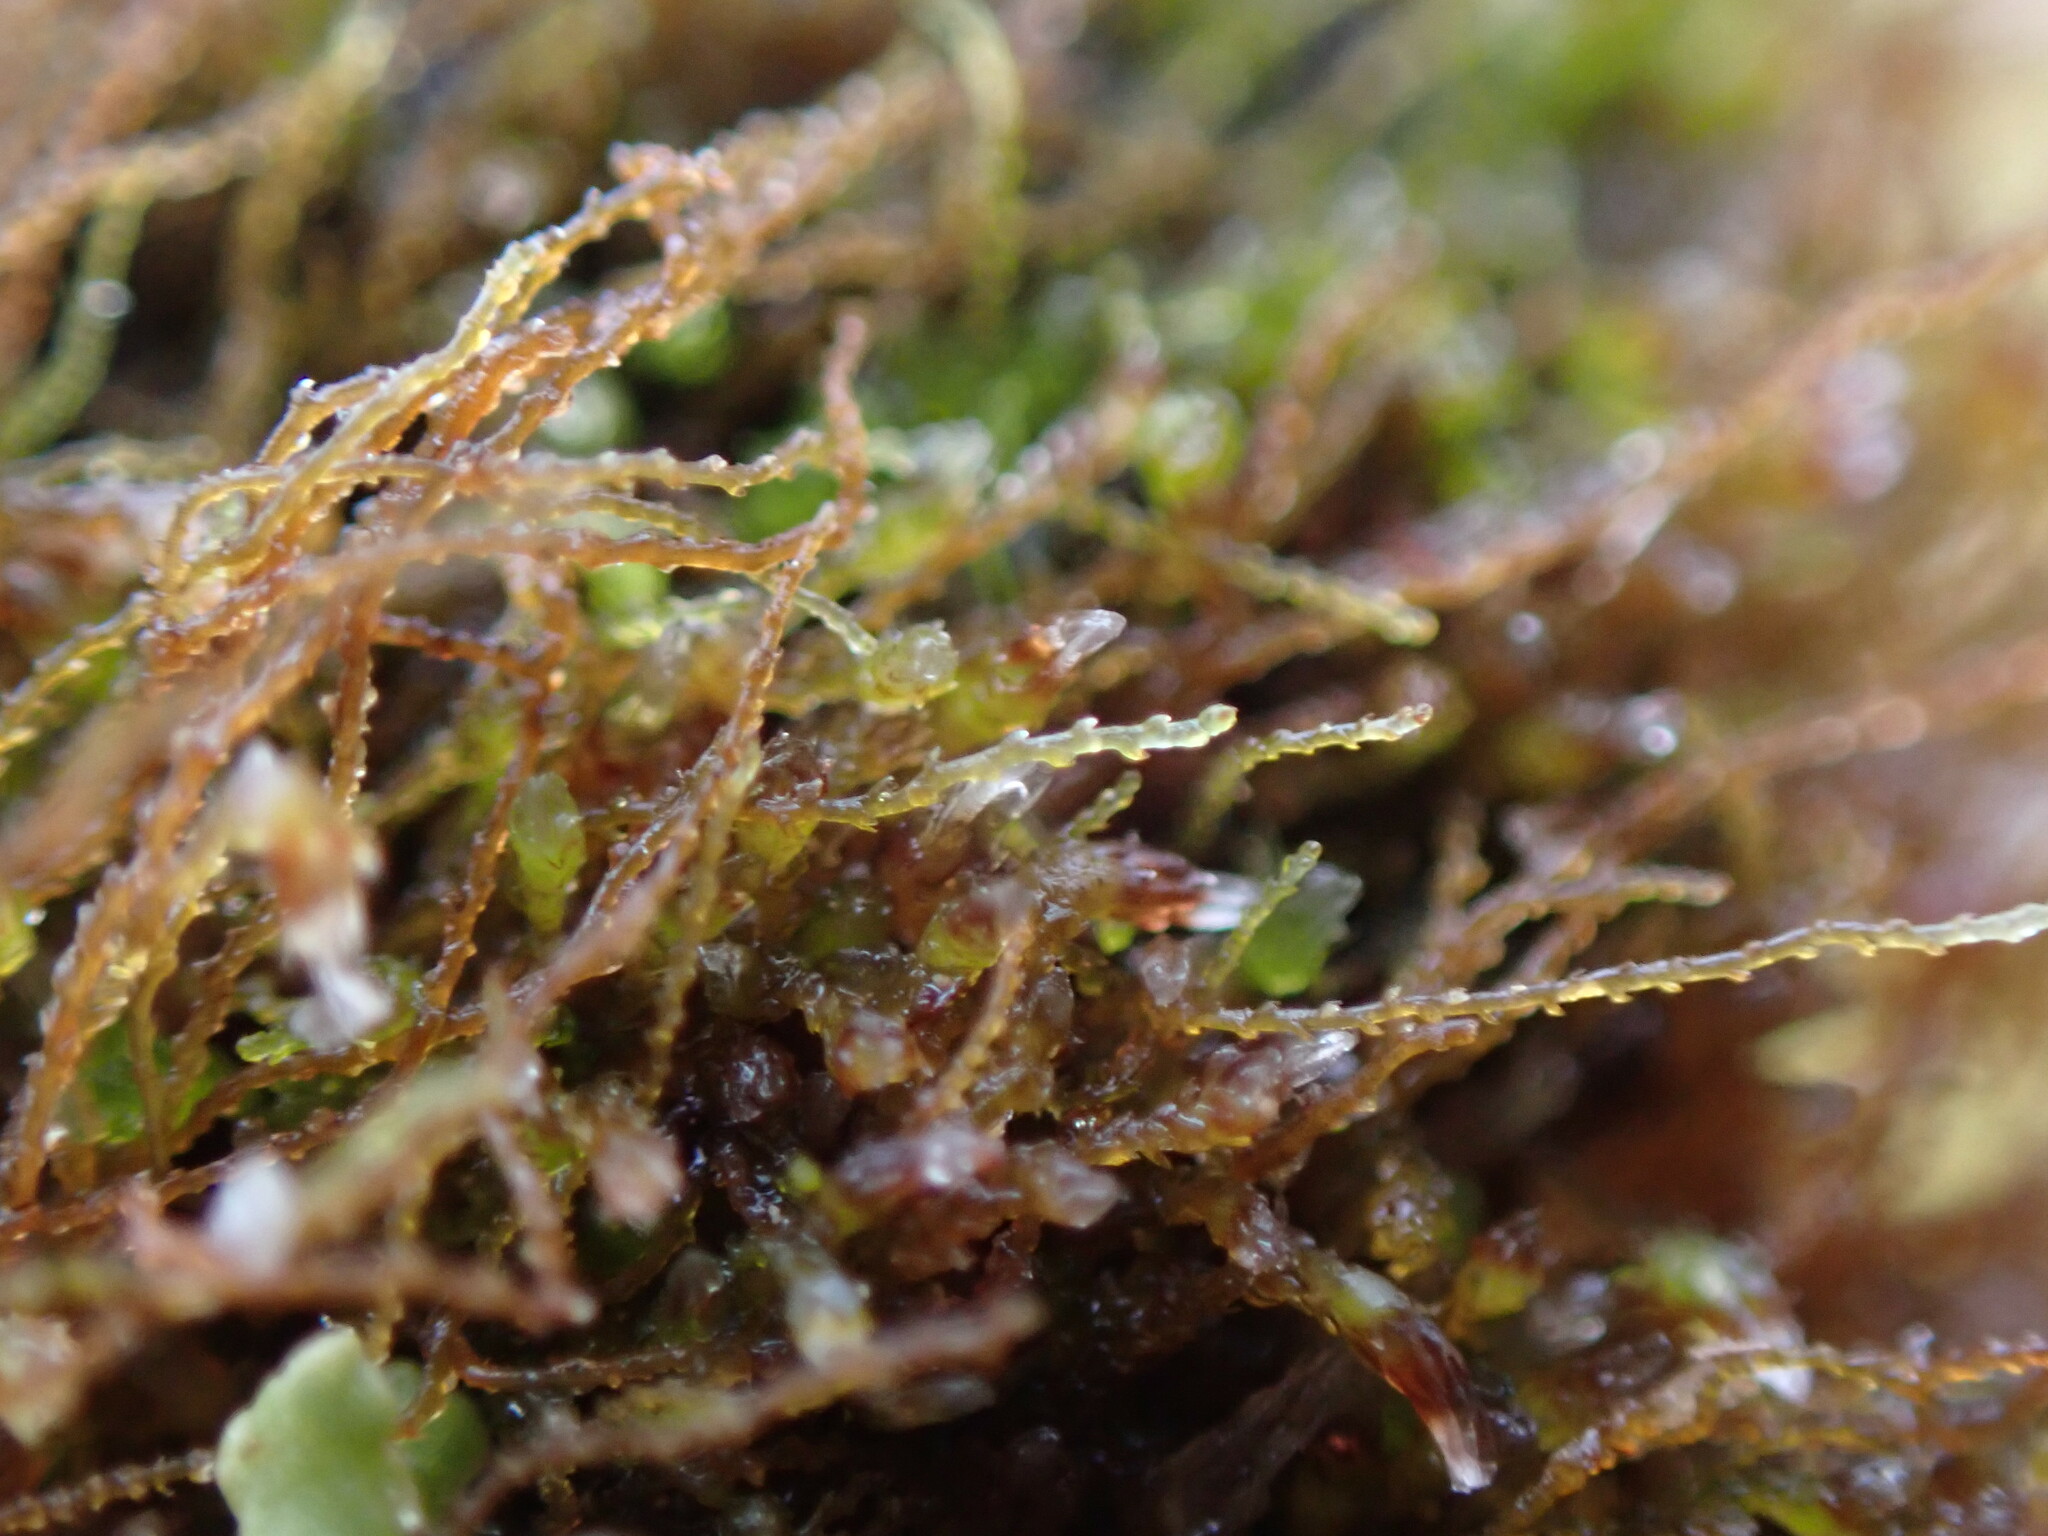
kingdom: Plantae
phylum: Marchantiophyta
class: Jungermanniopsida
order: Jungermanniales
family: Cephaloziellaceae
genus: Cephaloziella
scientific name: Cephaloziella divaricata
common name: Spreading threadwort
